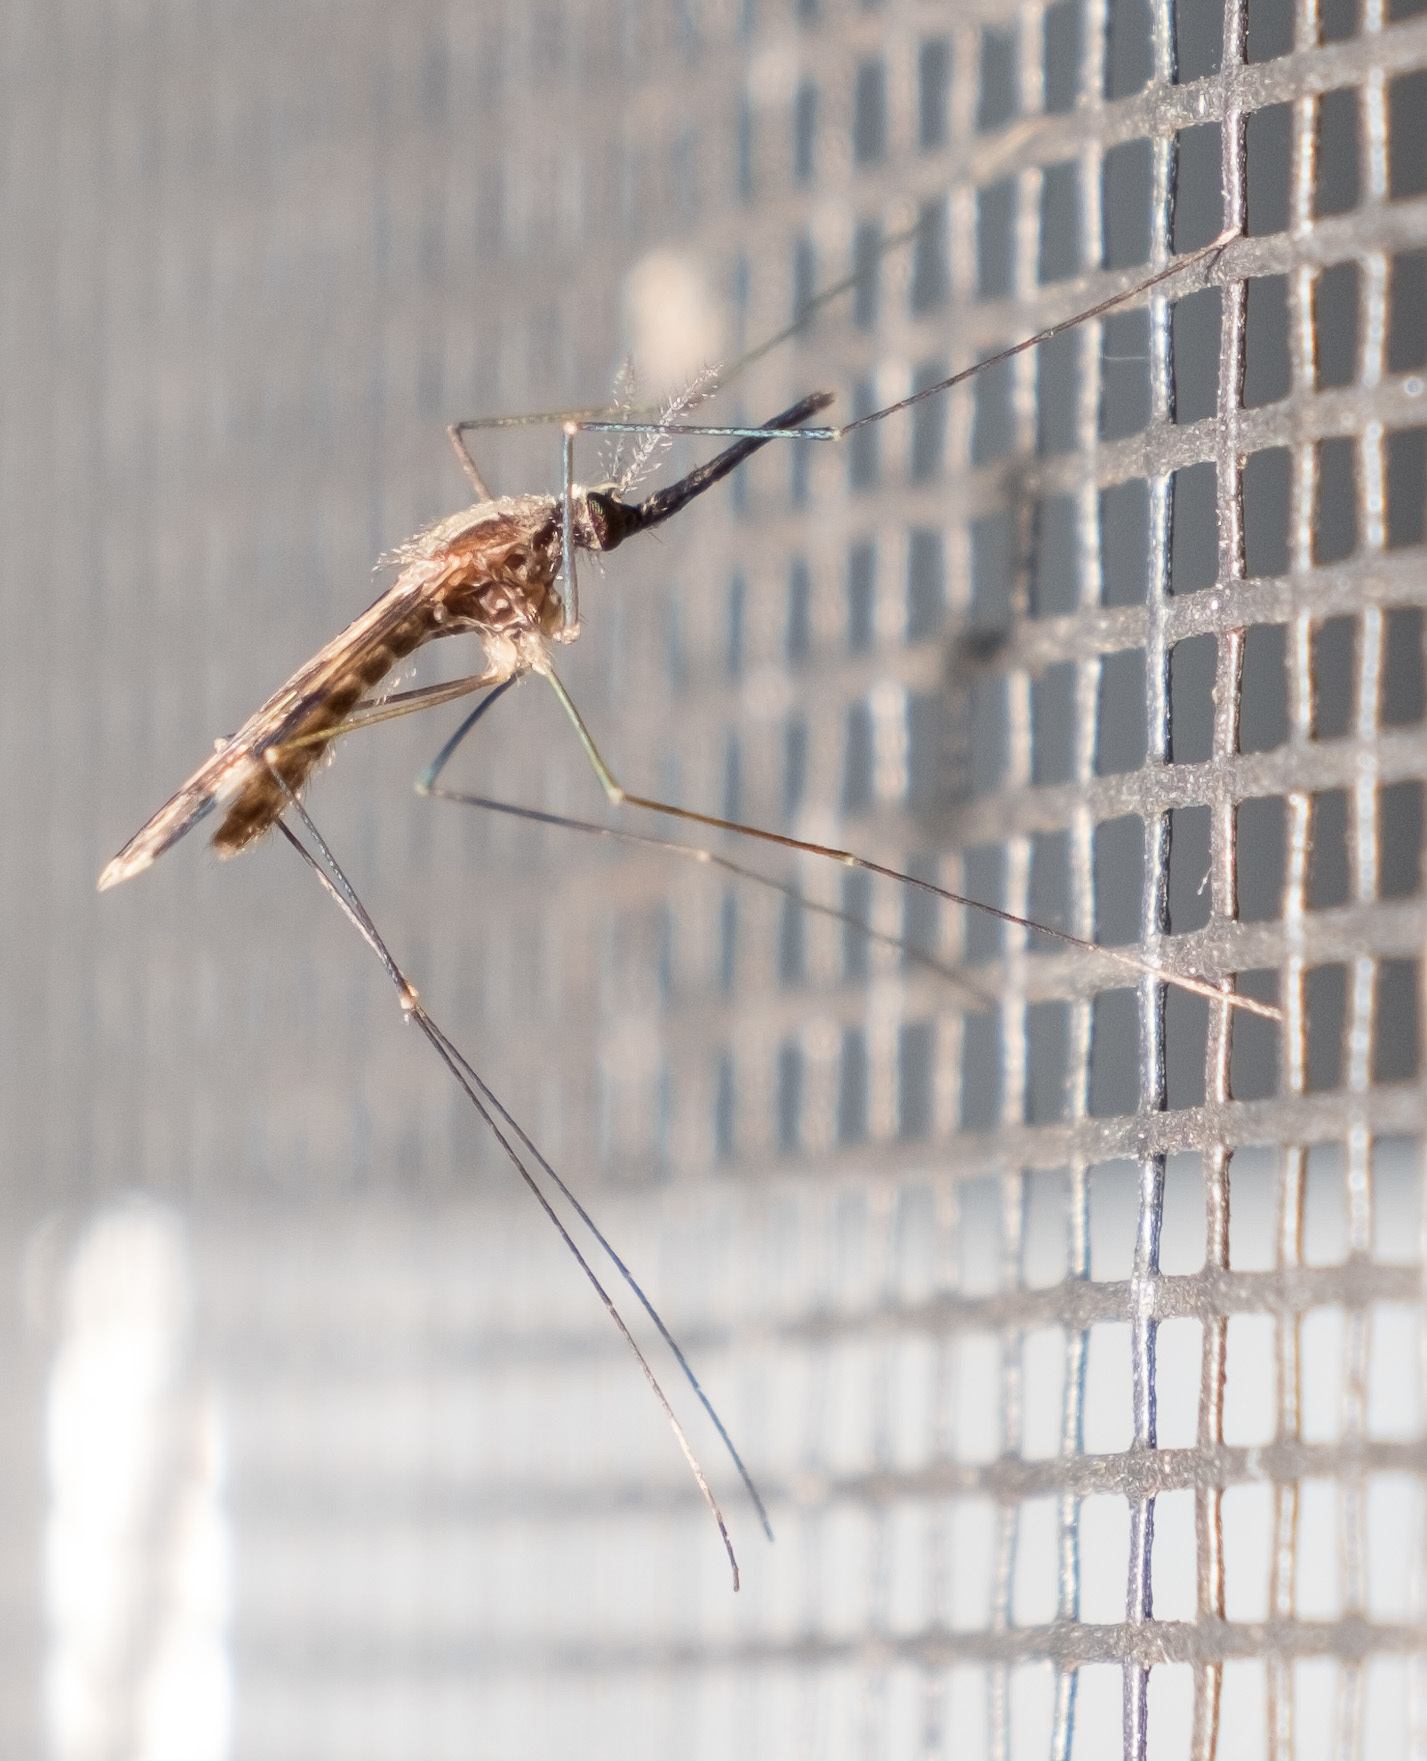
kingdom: Animalia
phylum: Arthropoda
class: Insecta
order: Diptera
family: Culicidae
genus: Anopheles
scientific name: Anopheles punctipennis
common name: Woodland malaria mosquito
